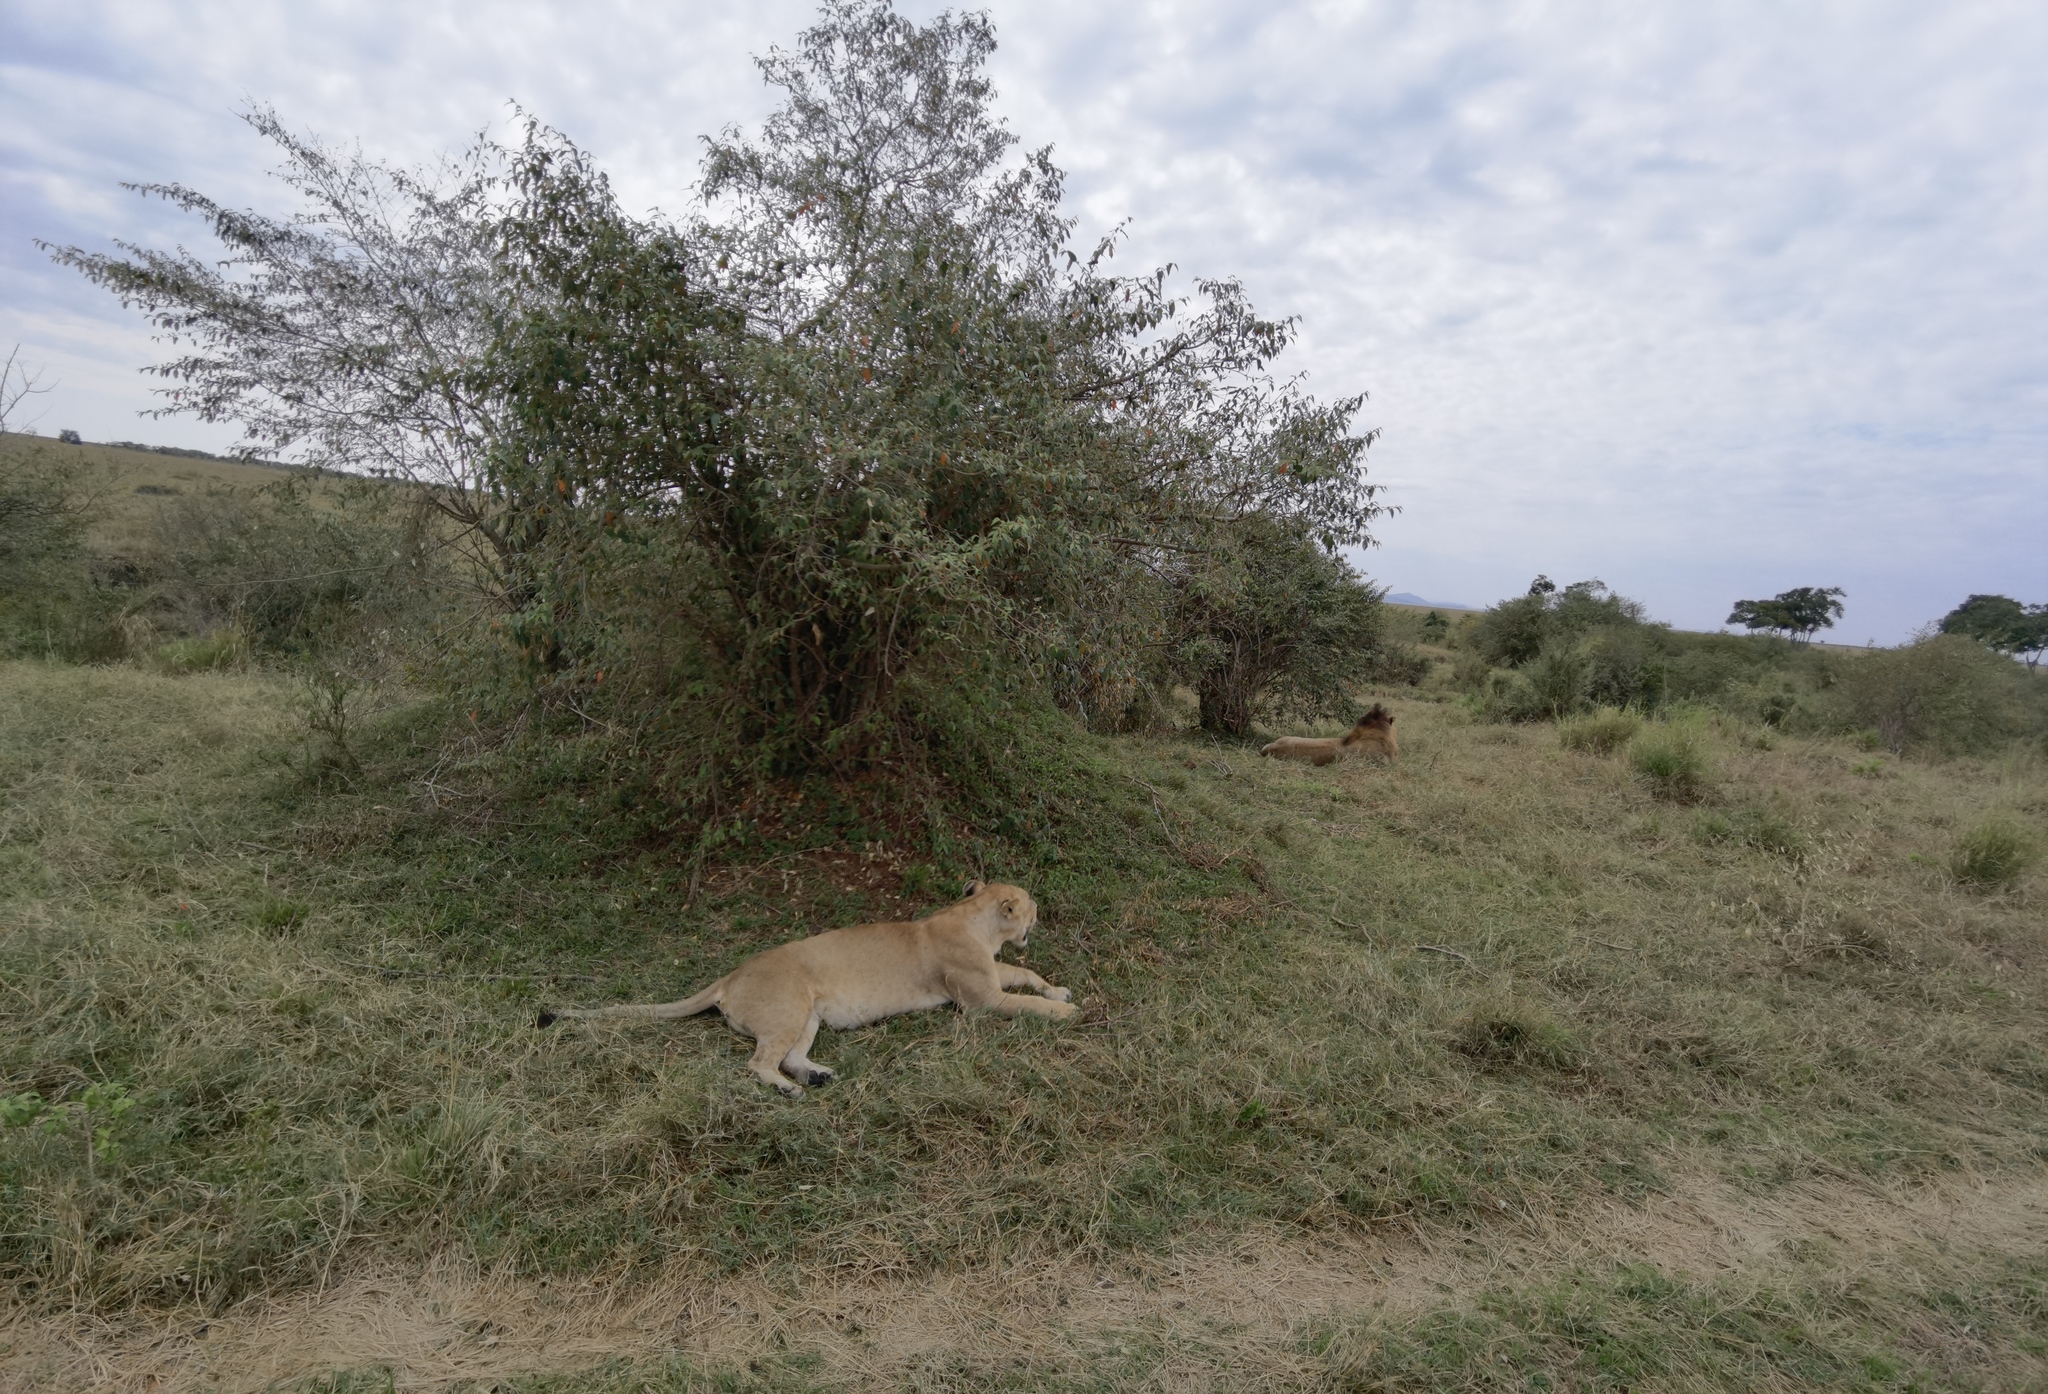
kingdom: Animalia
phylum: Chordata
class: Mammalia
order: Carnivora
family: Felidae
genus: Panthera
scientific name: Panthera leo
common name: Lion
